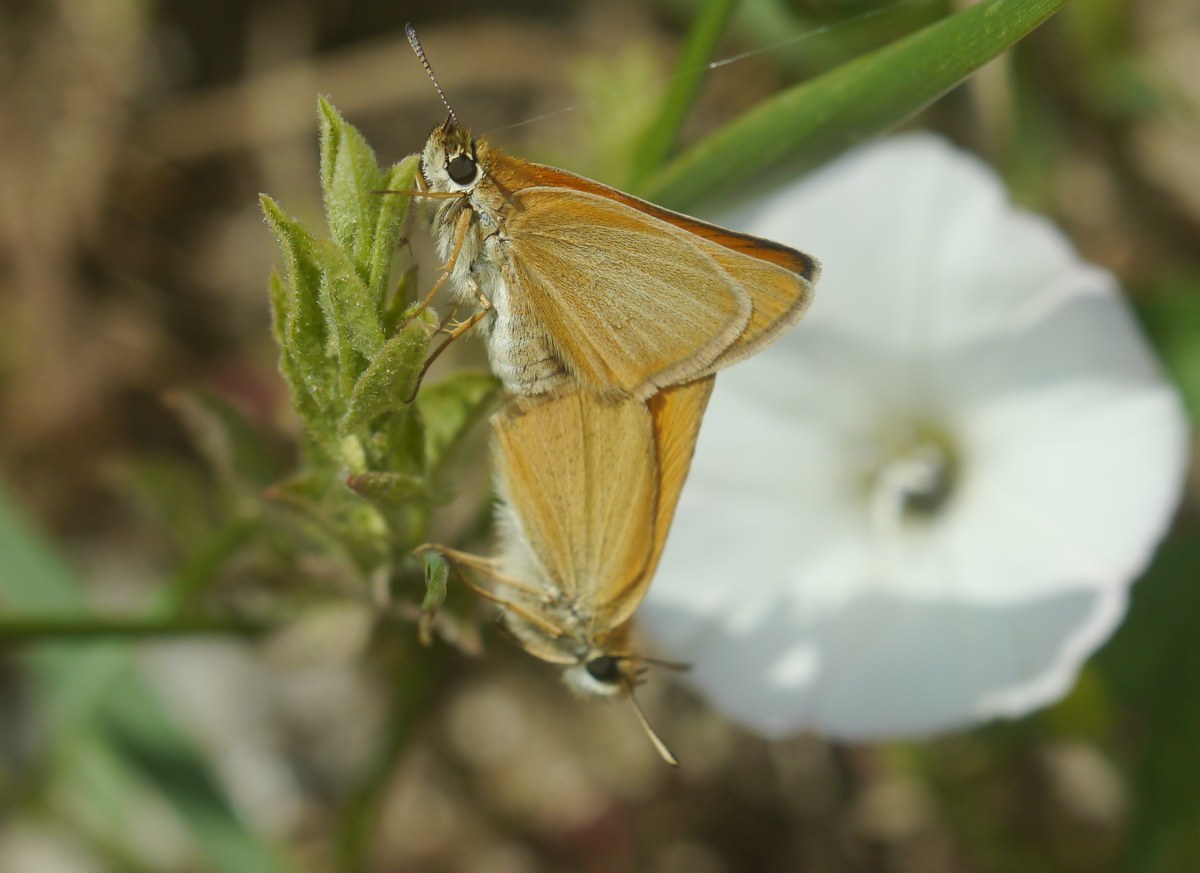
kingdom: Animalia
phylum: Arthropoda
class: Insecta
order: Lepidoptera
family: Hesperiidae
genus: Thymelicus
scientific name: Thymelicus lineola
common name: Essex skipper
